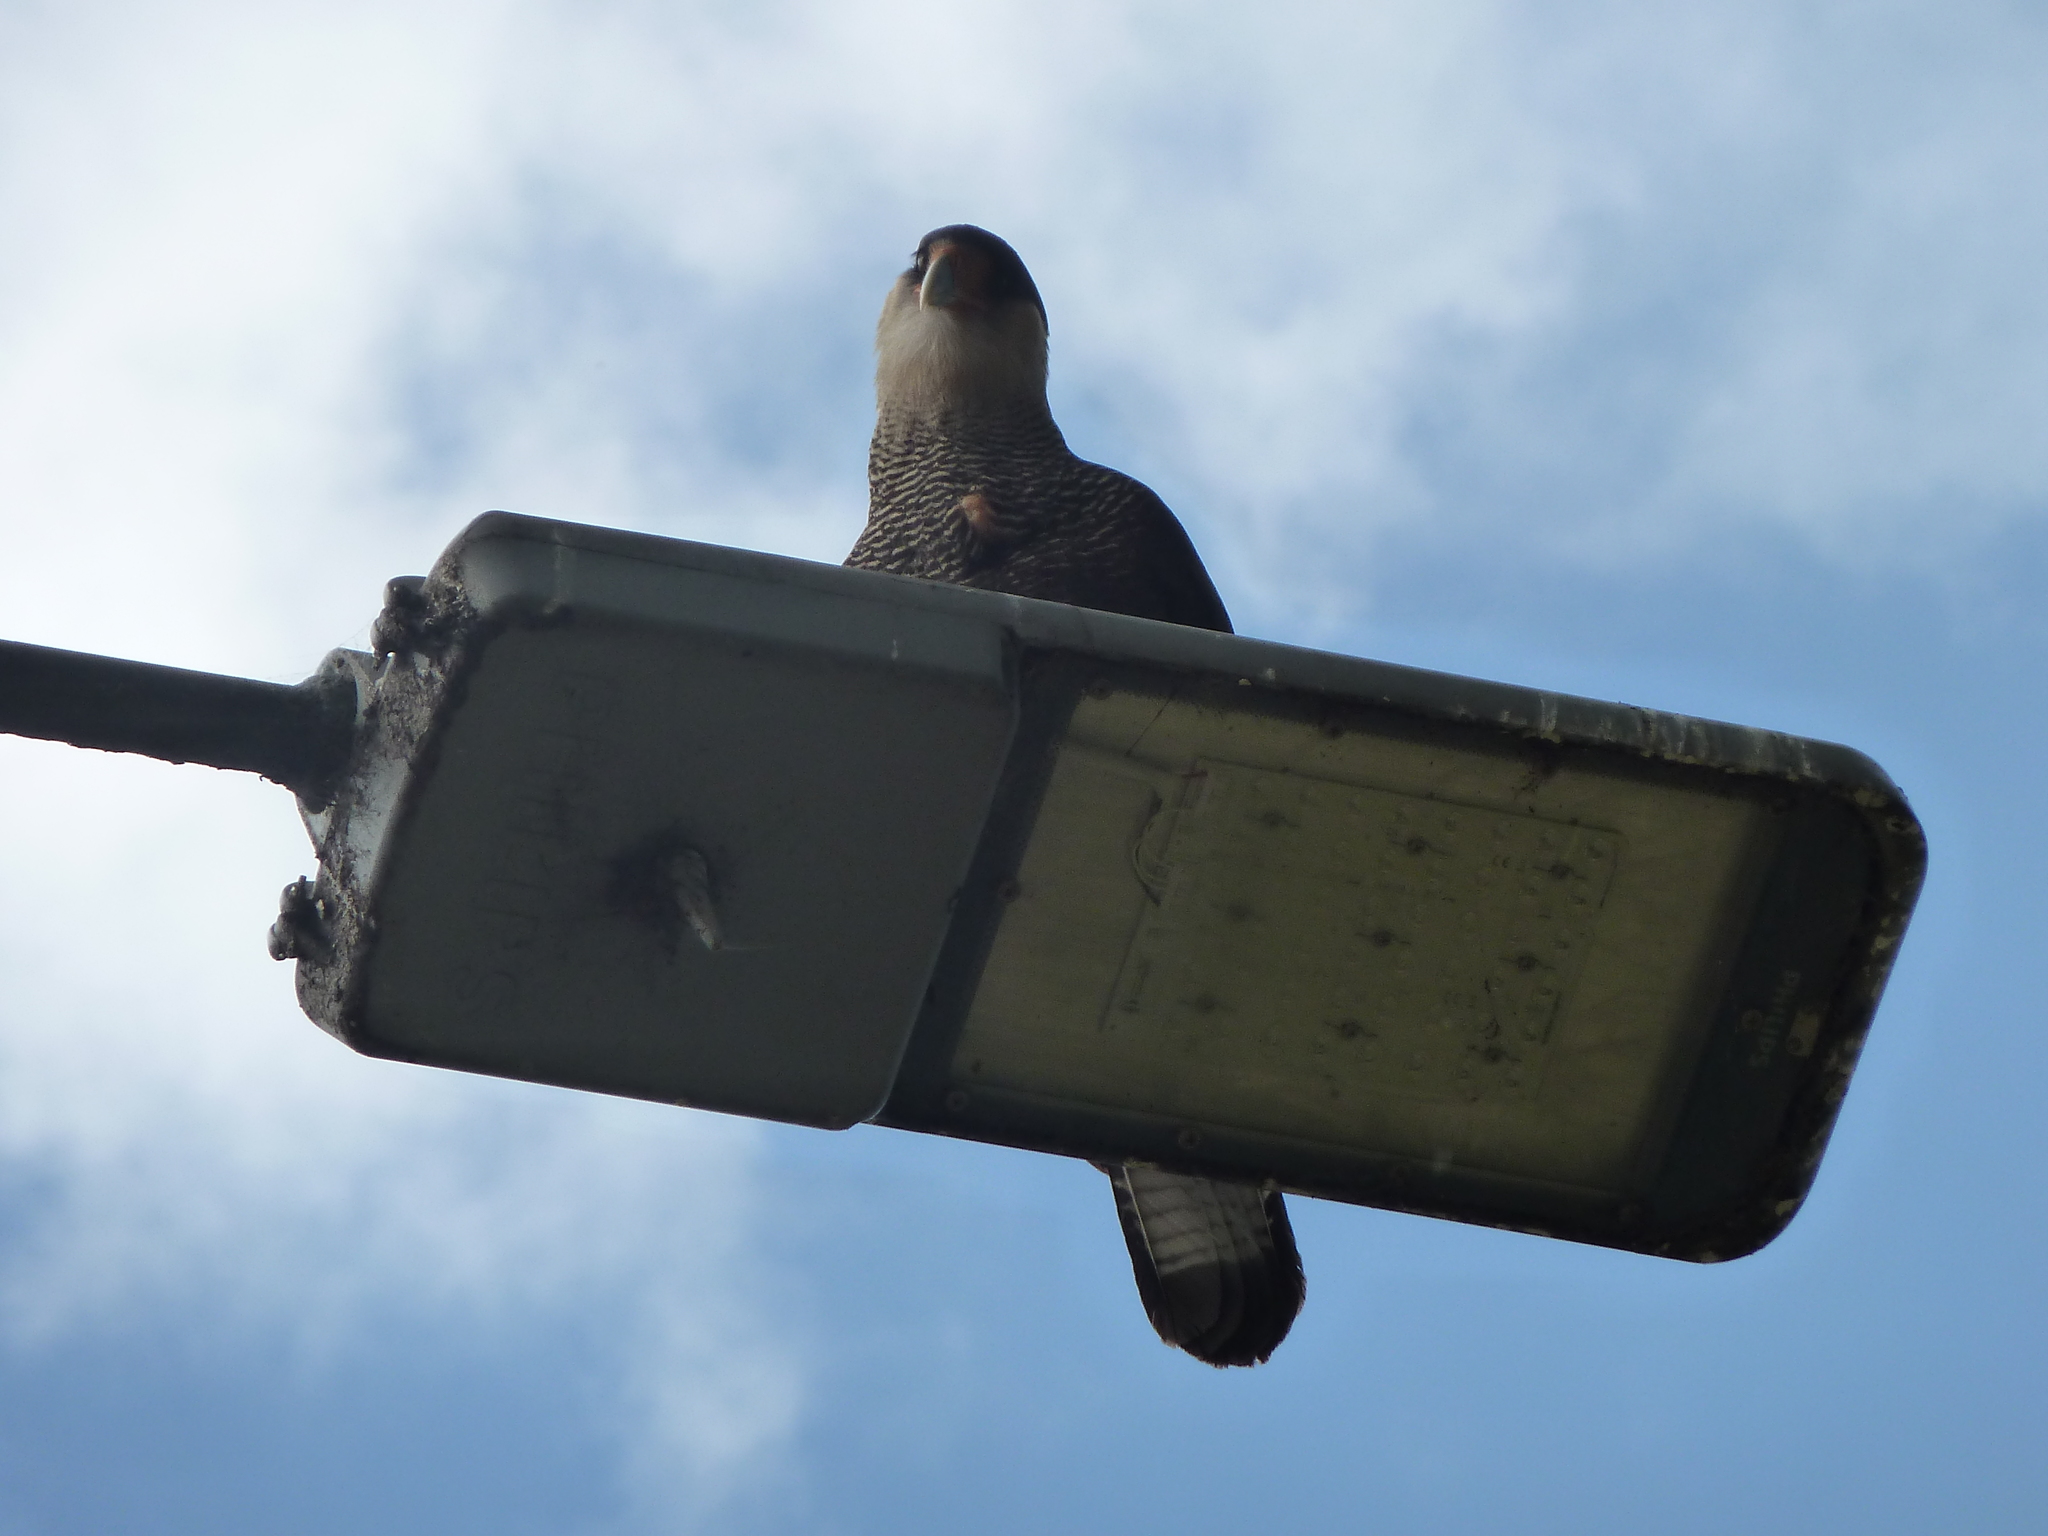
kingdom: Animalia
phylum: Chordata
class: Aves
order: Falconiformes
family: Falconidae
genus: Caracara
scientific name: Caracara plancus
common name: Southern caracara
